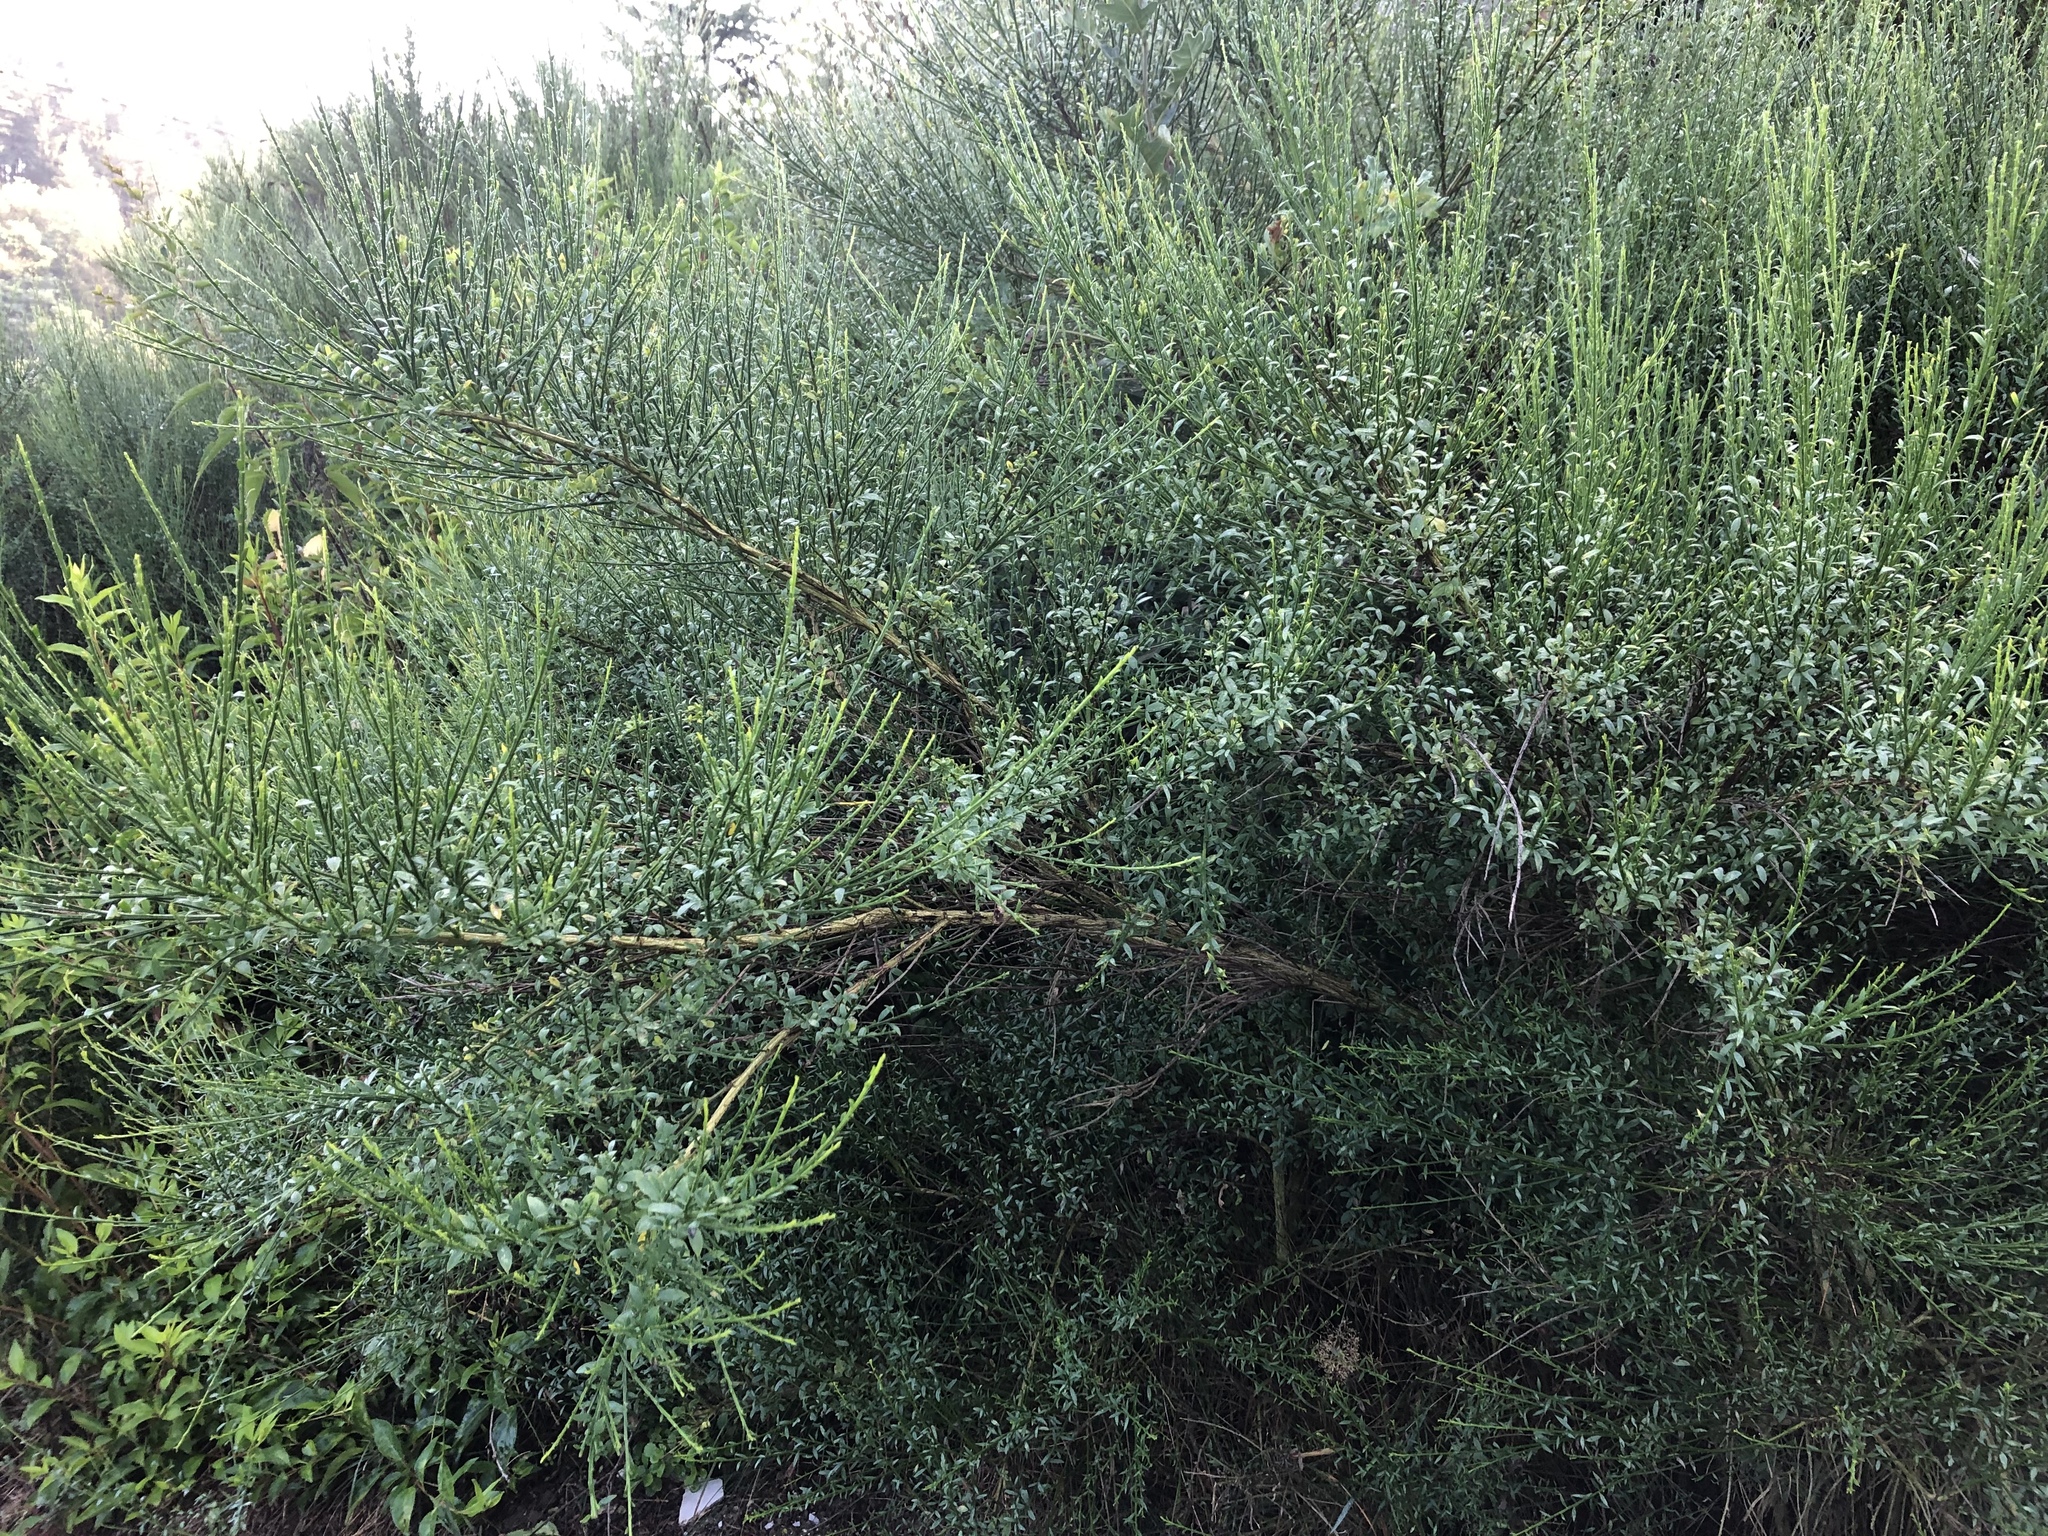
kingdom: Plantae
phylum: Tracheophyta
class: Magnoliopsida
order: Fabales
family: Fabaceae
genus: Cytisus
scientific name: Cytisus scoparius
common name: Scotch broom
